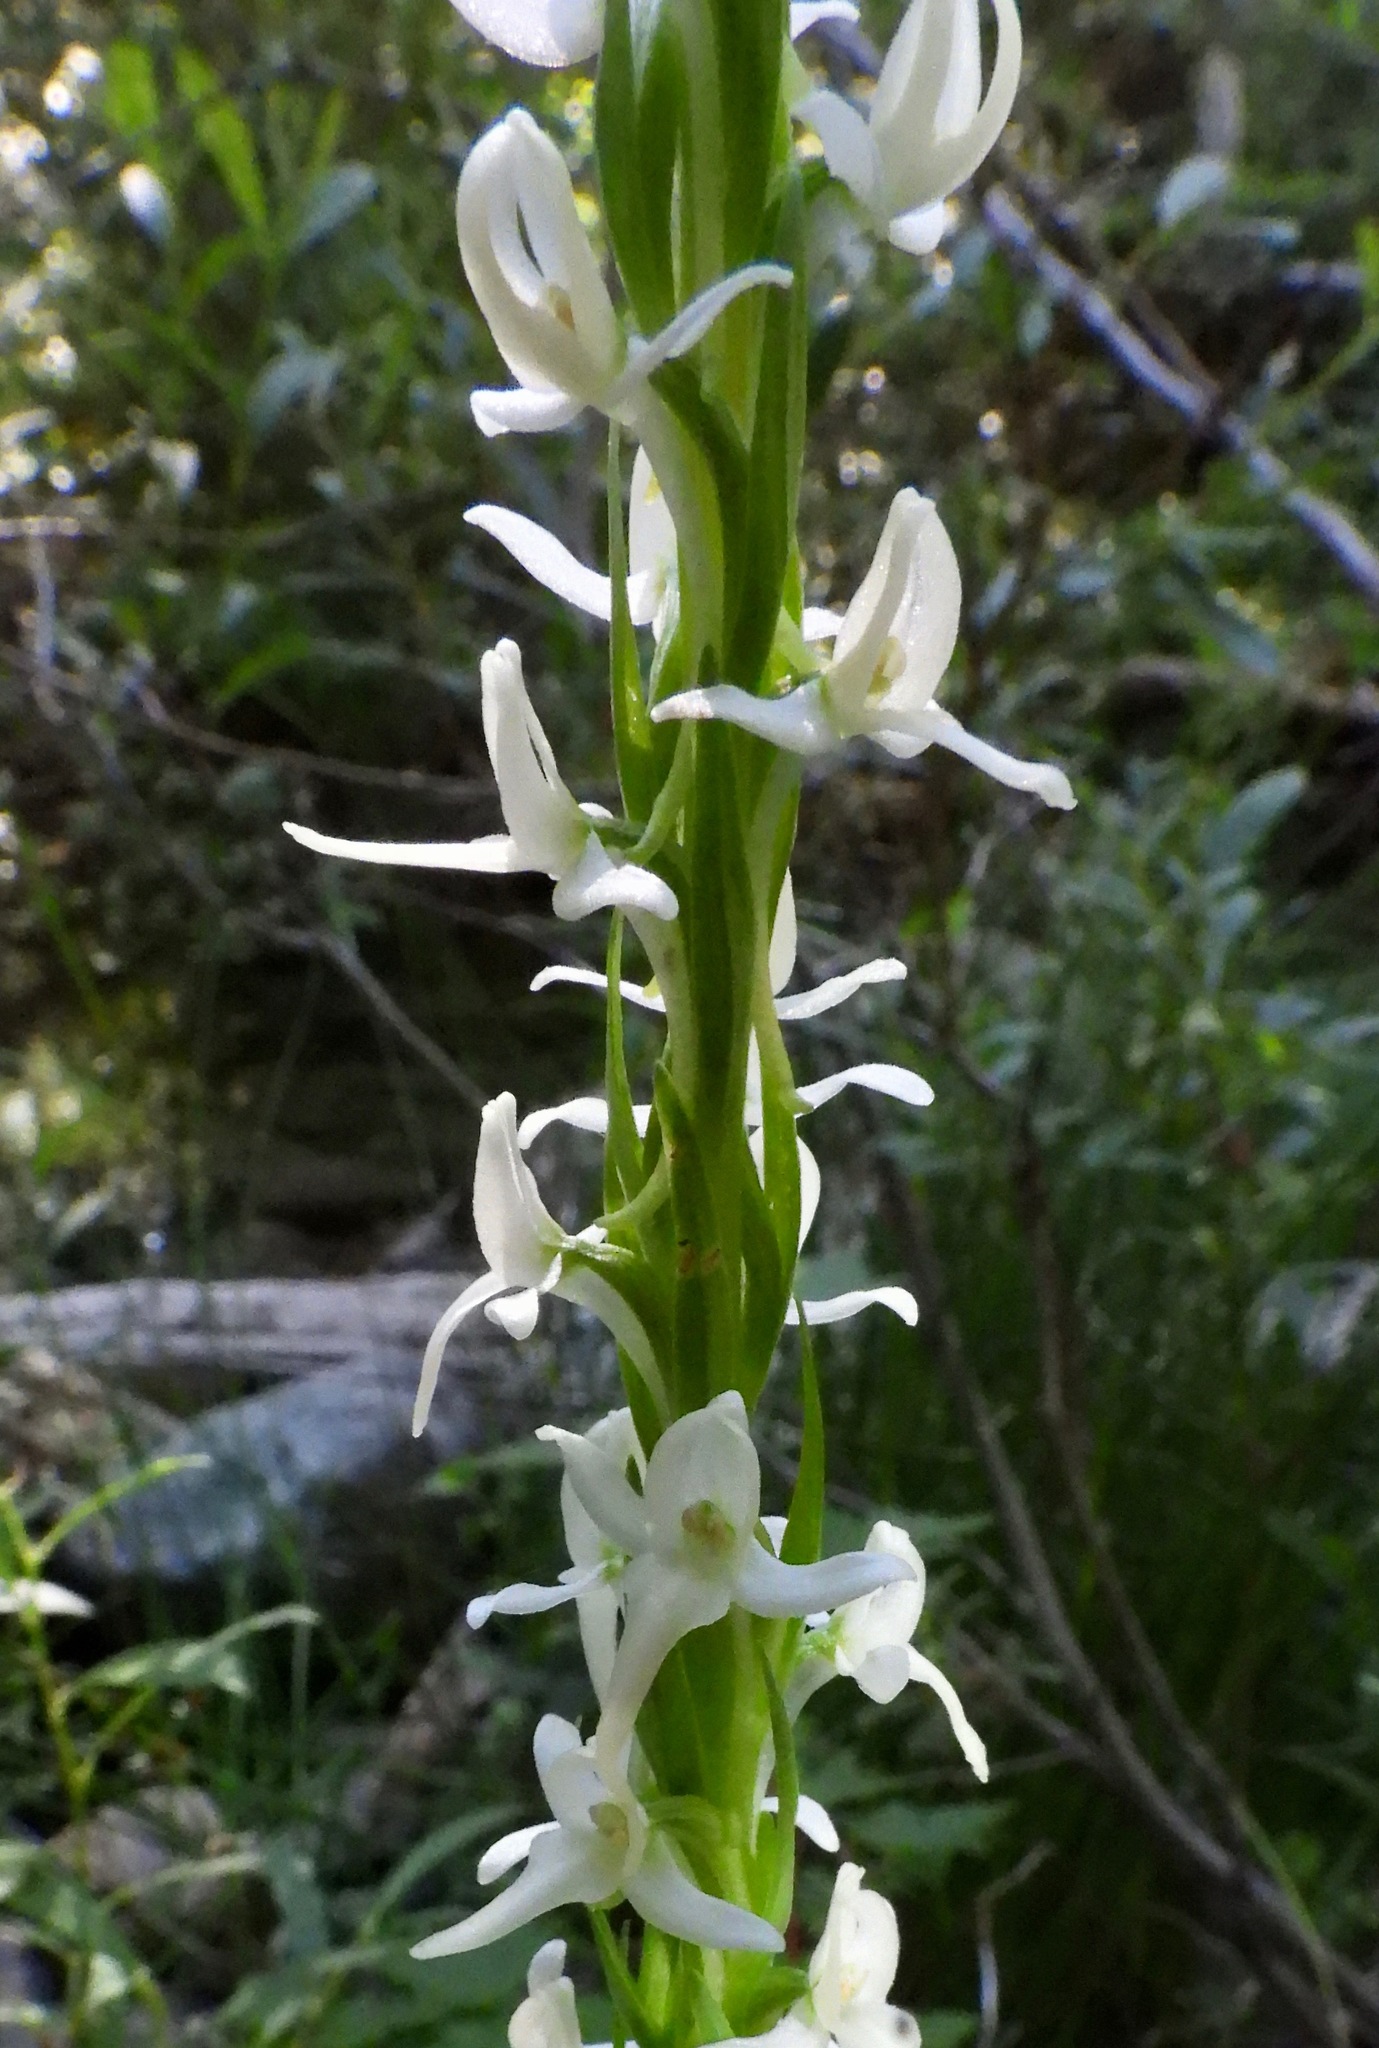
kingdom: Plantae
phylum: Tracheophyta
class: Liliopsida
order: Asparagales
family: Orchidaceae
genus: Platanthera
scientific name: Platanthera dilatata
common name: Bog candles
